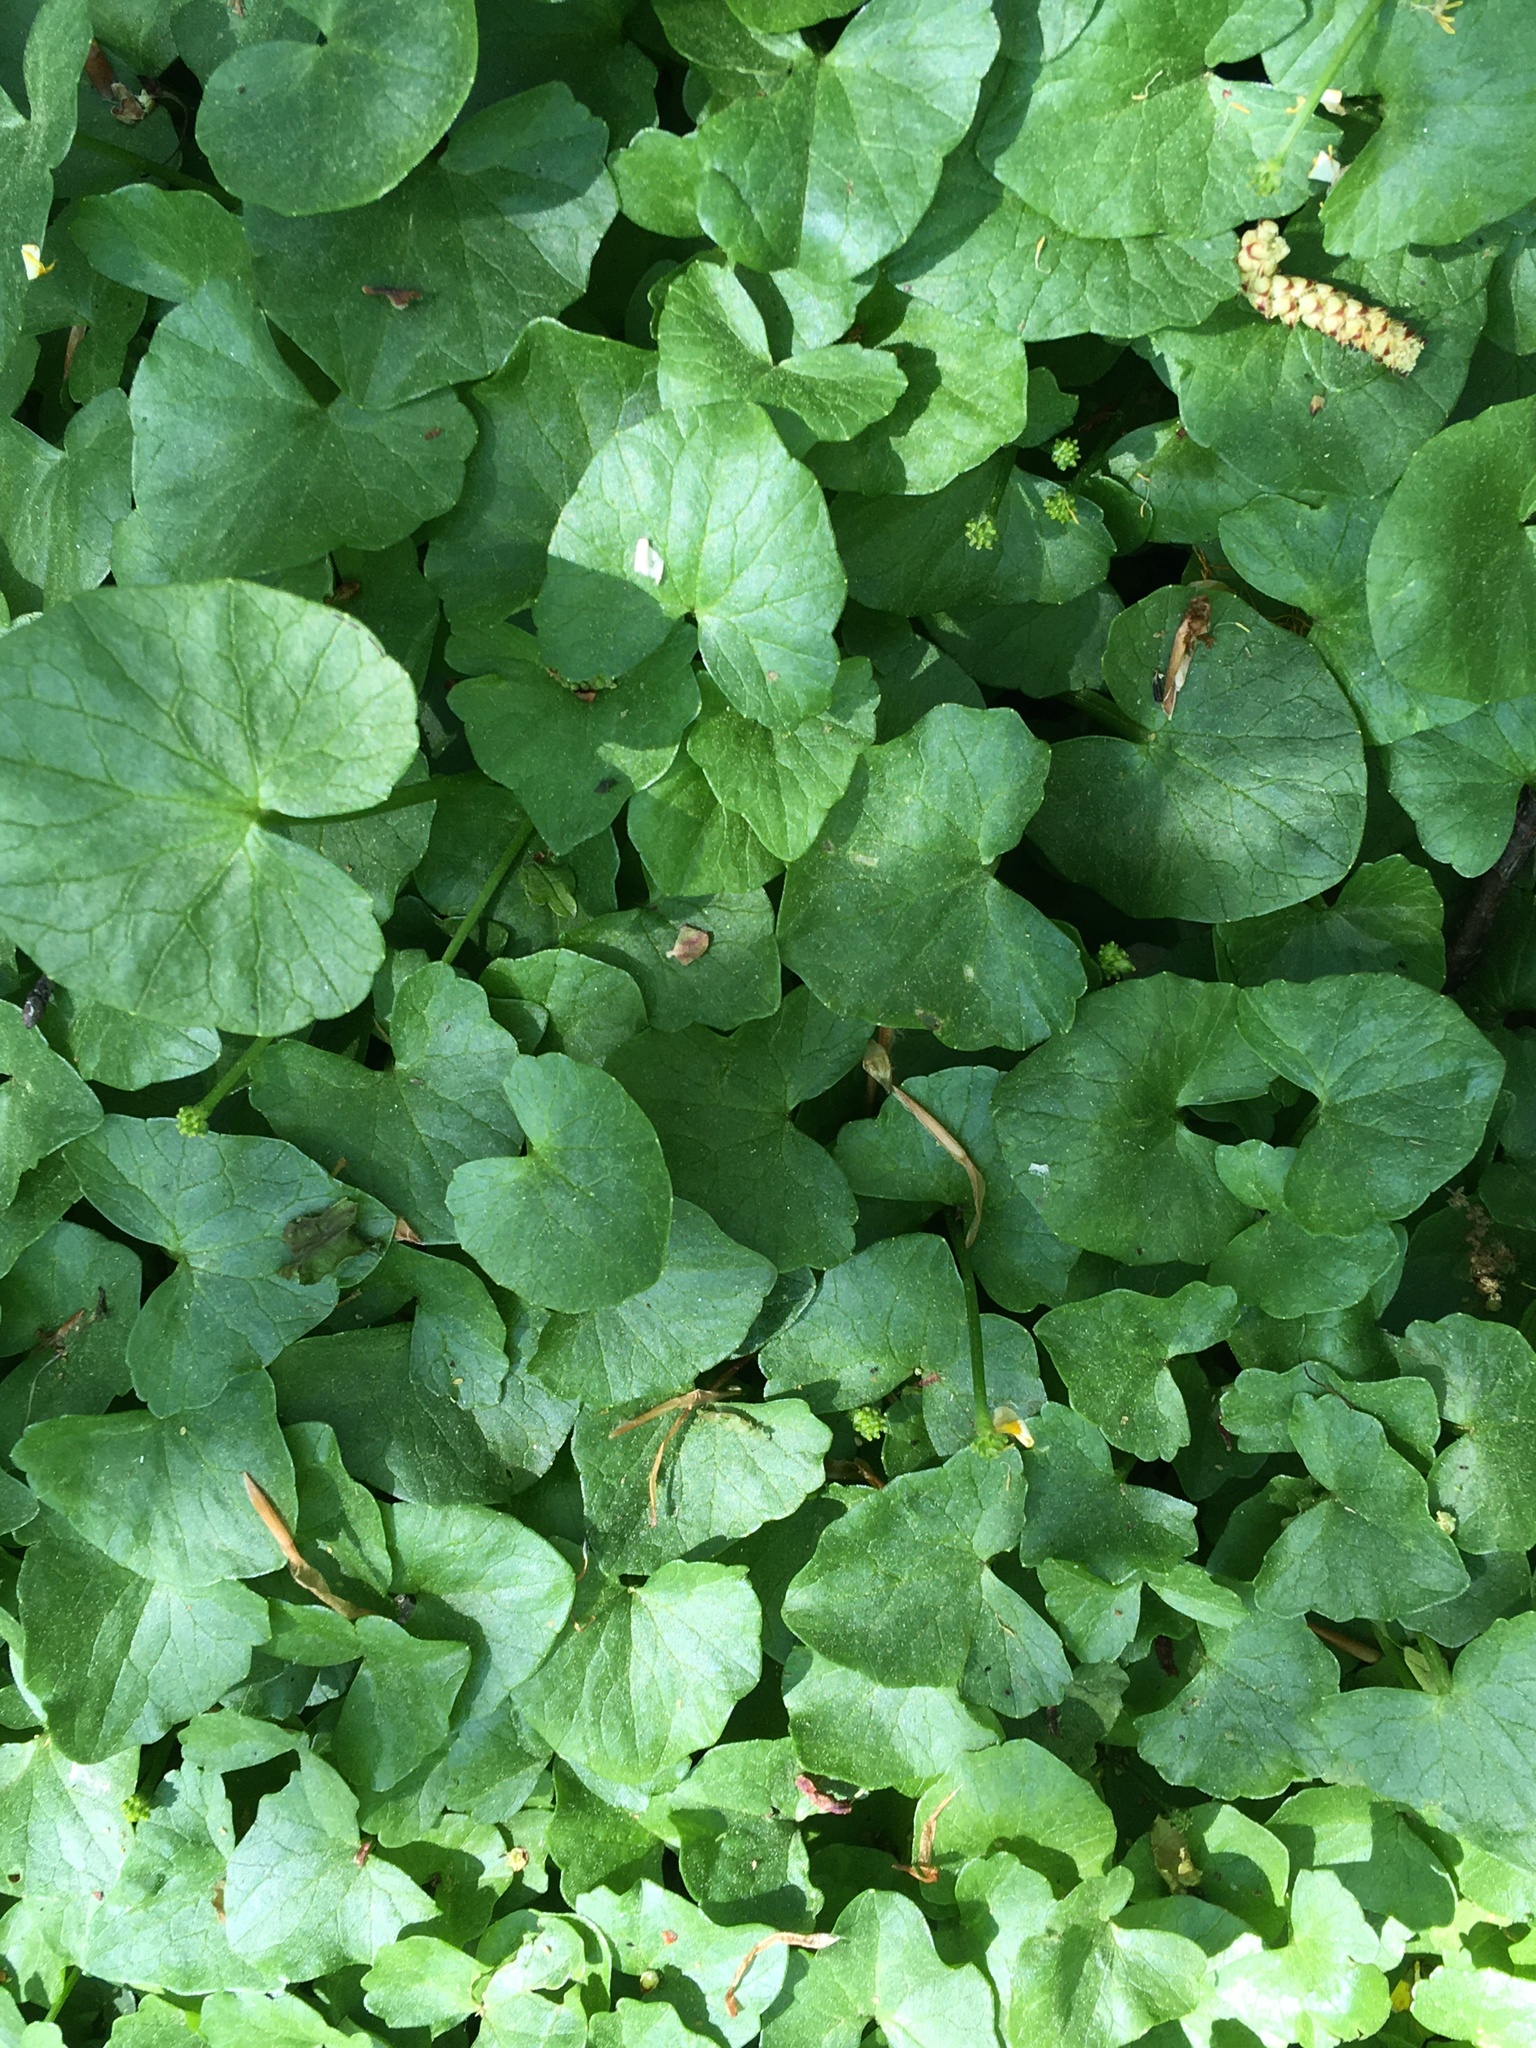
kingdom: Plantae
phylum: Tracheophyta
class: Magnoliopsida
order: Ranunculales
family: Ranunculaceae
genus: Ficaria
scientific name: Ficaria verna
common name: Lesser celandine
